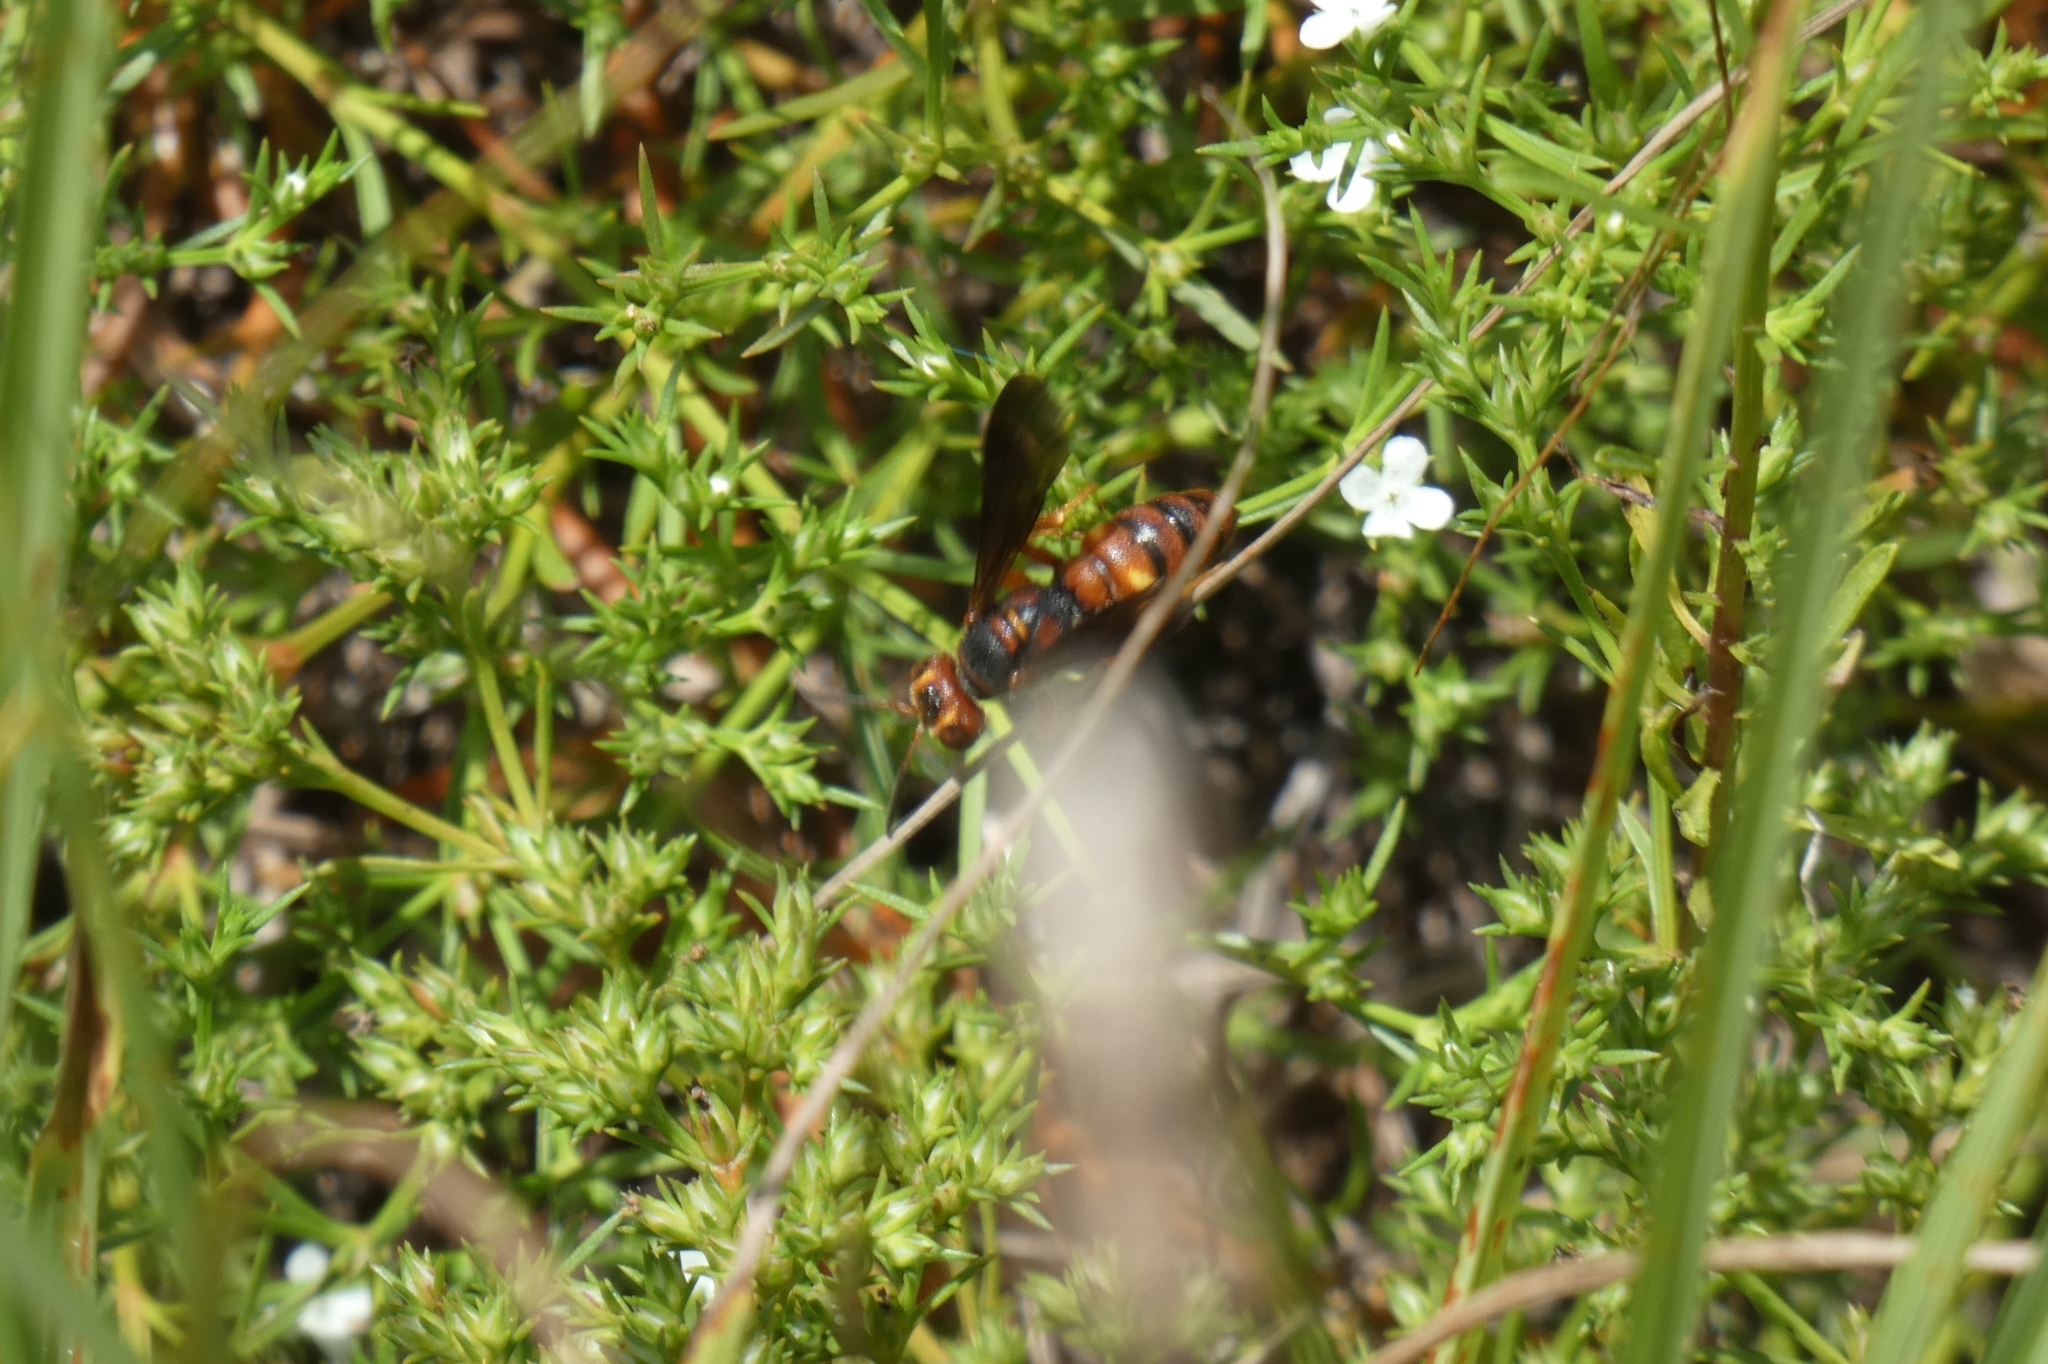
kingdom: Animalia
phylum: Arthropoda
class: Insecta
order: Hymenoptera
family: Crabronidae
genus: Cerceris
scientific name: Cerceris bicornuta
